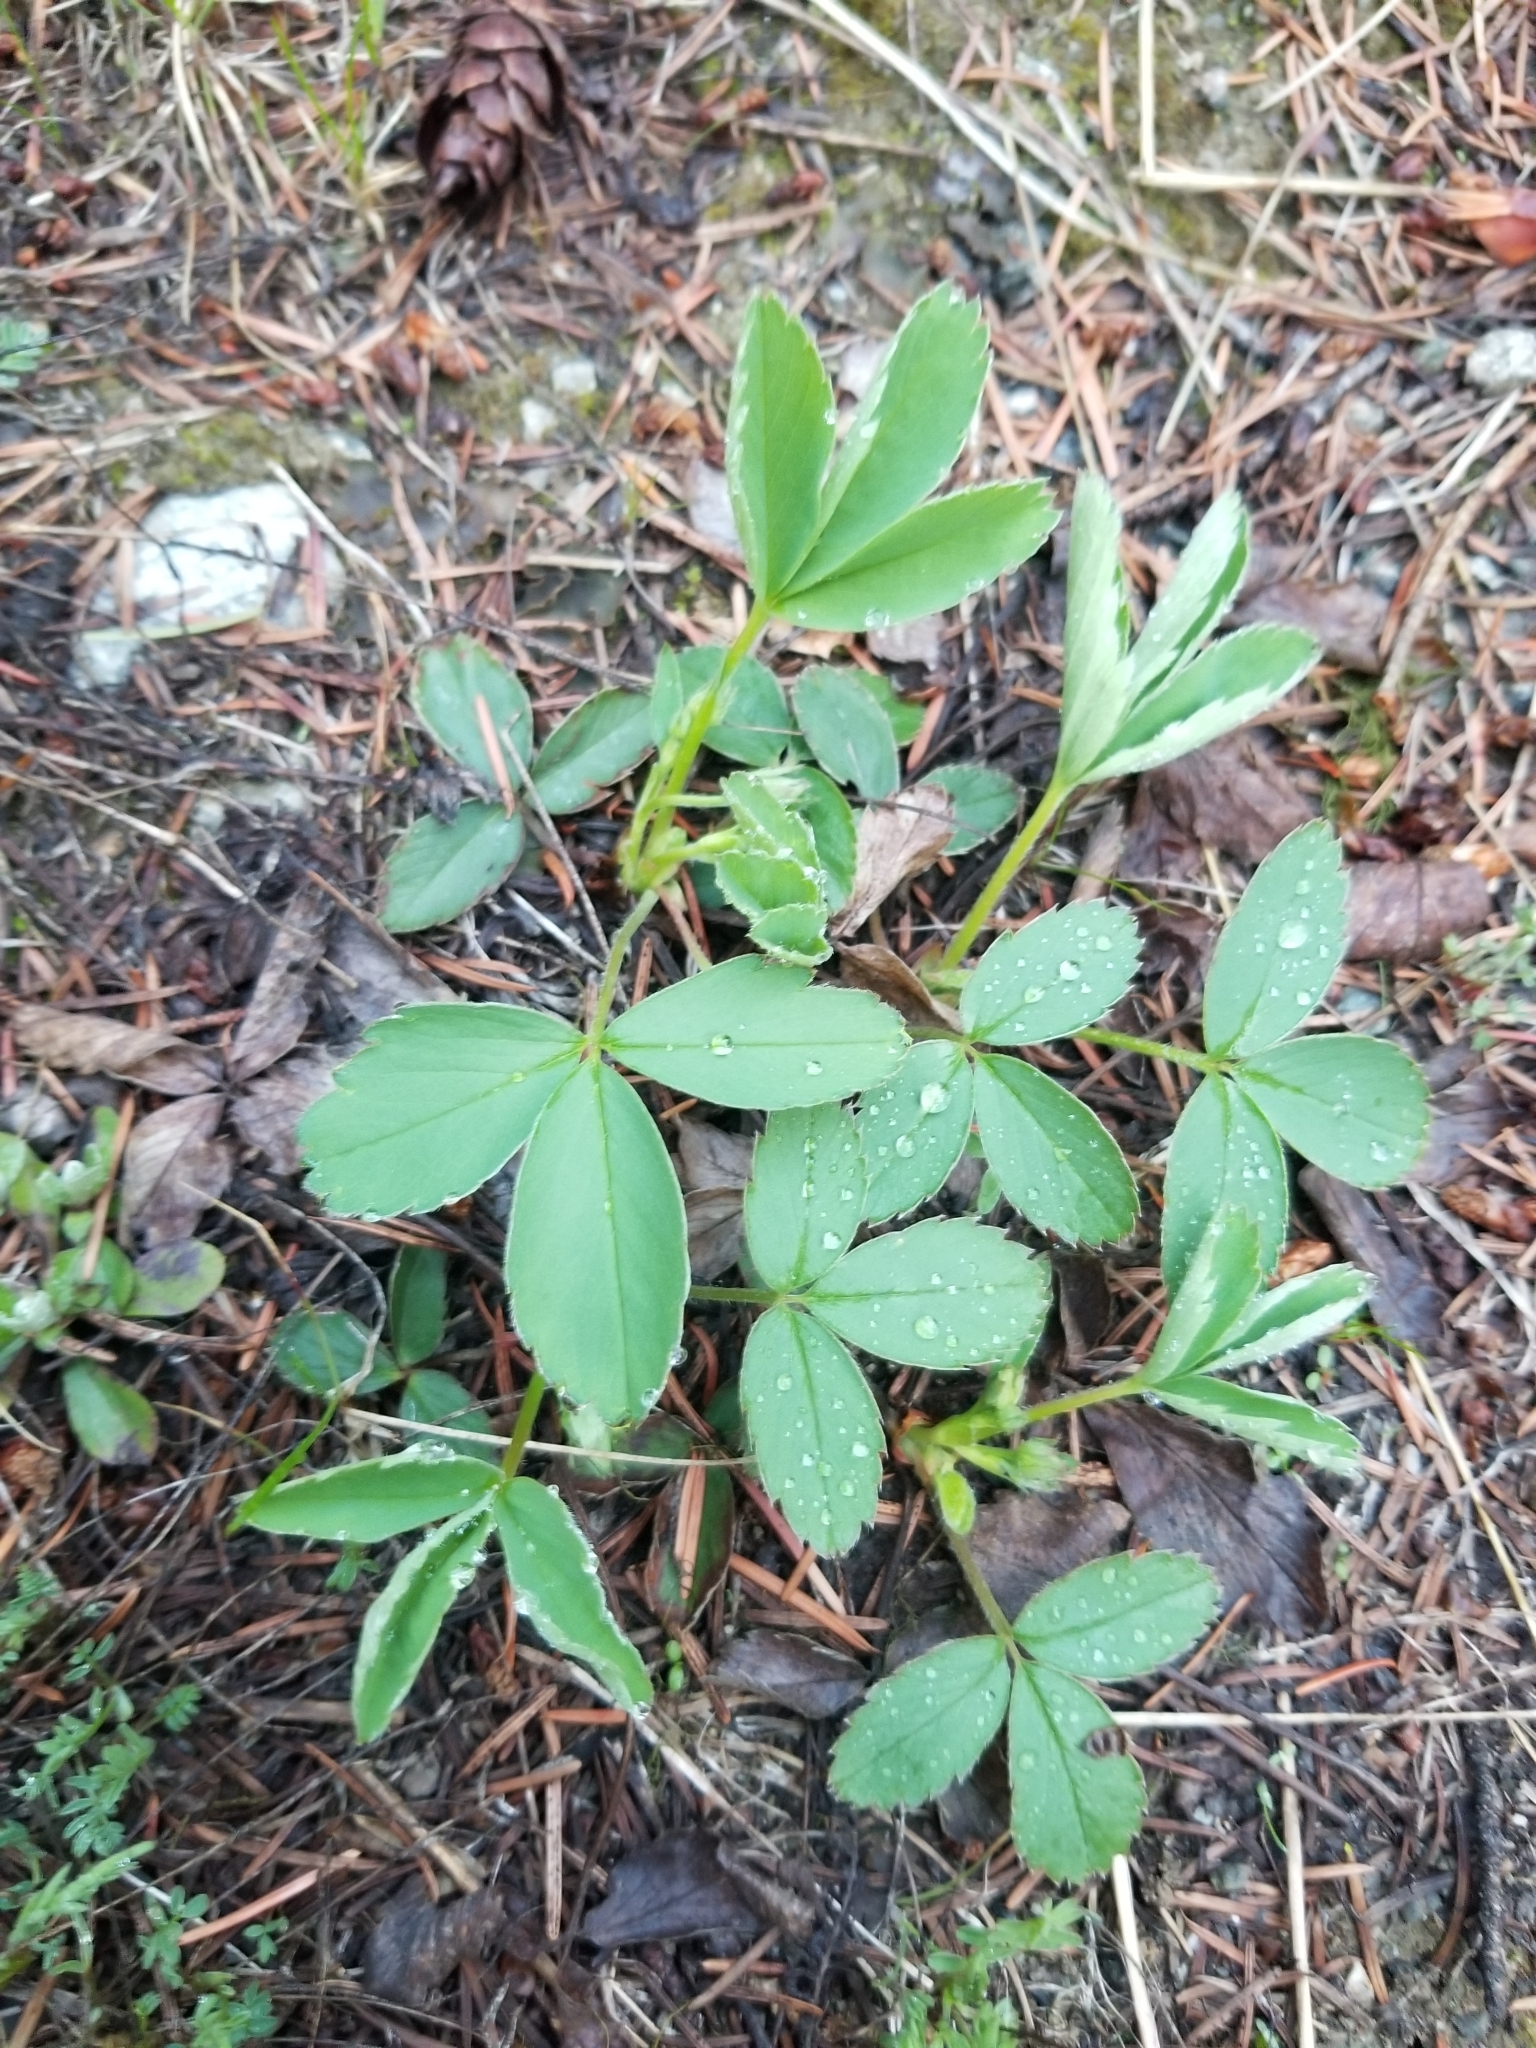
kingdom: Plantae
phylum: Tracheophyta
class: Magnoliopsida
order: Rosales
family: Rosaceae
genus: Fragaria
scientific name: Fragaria virginiana
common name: Thickleaved wild strawberry
